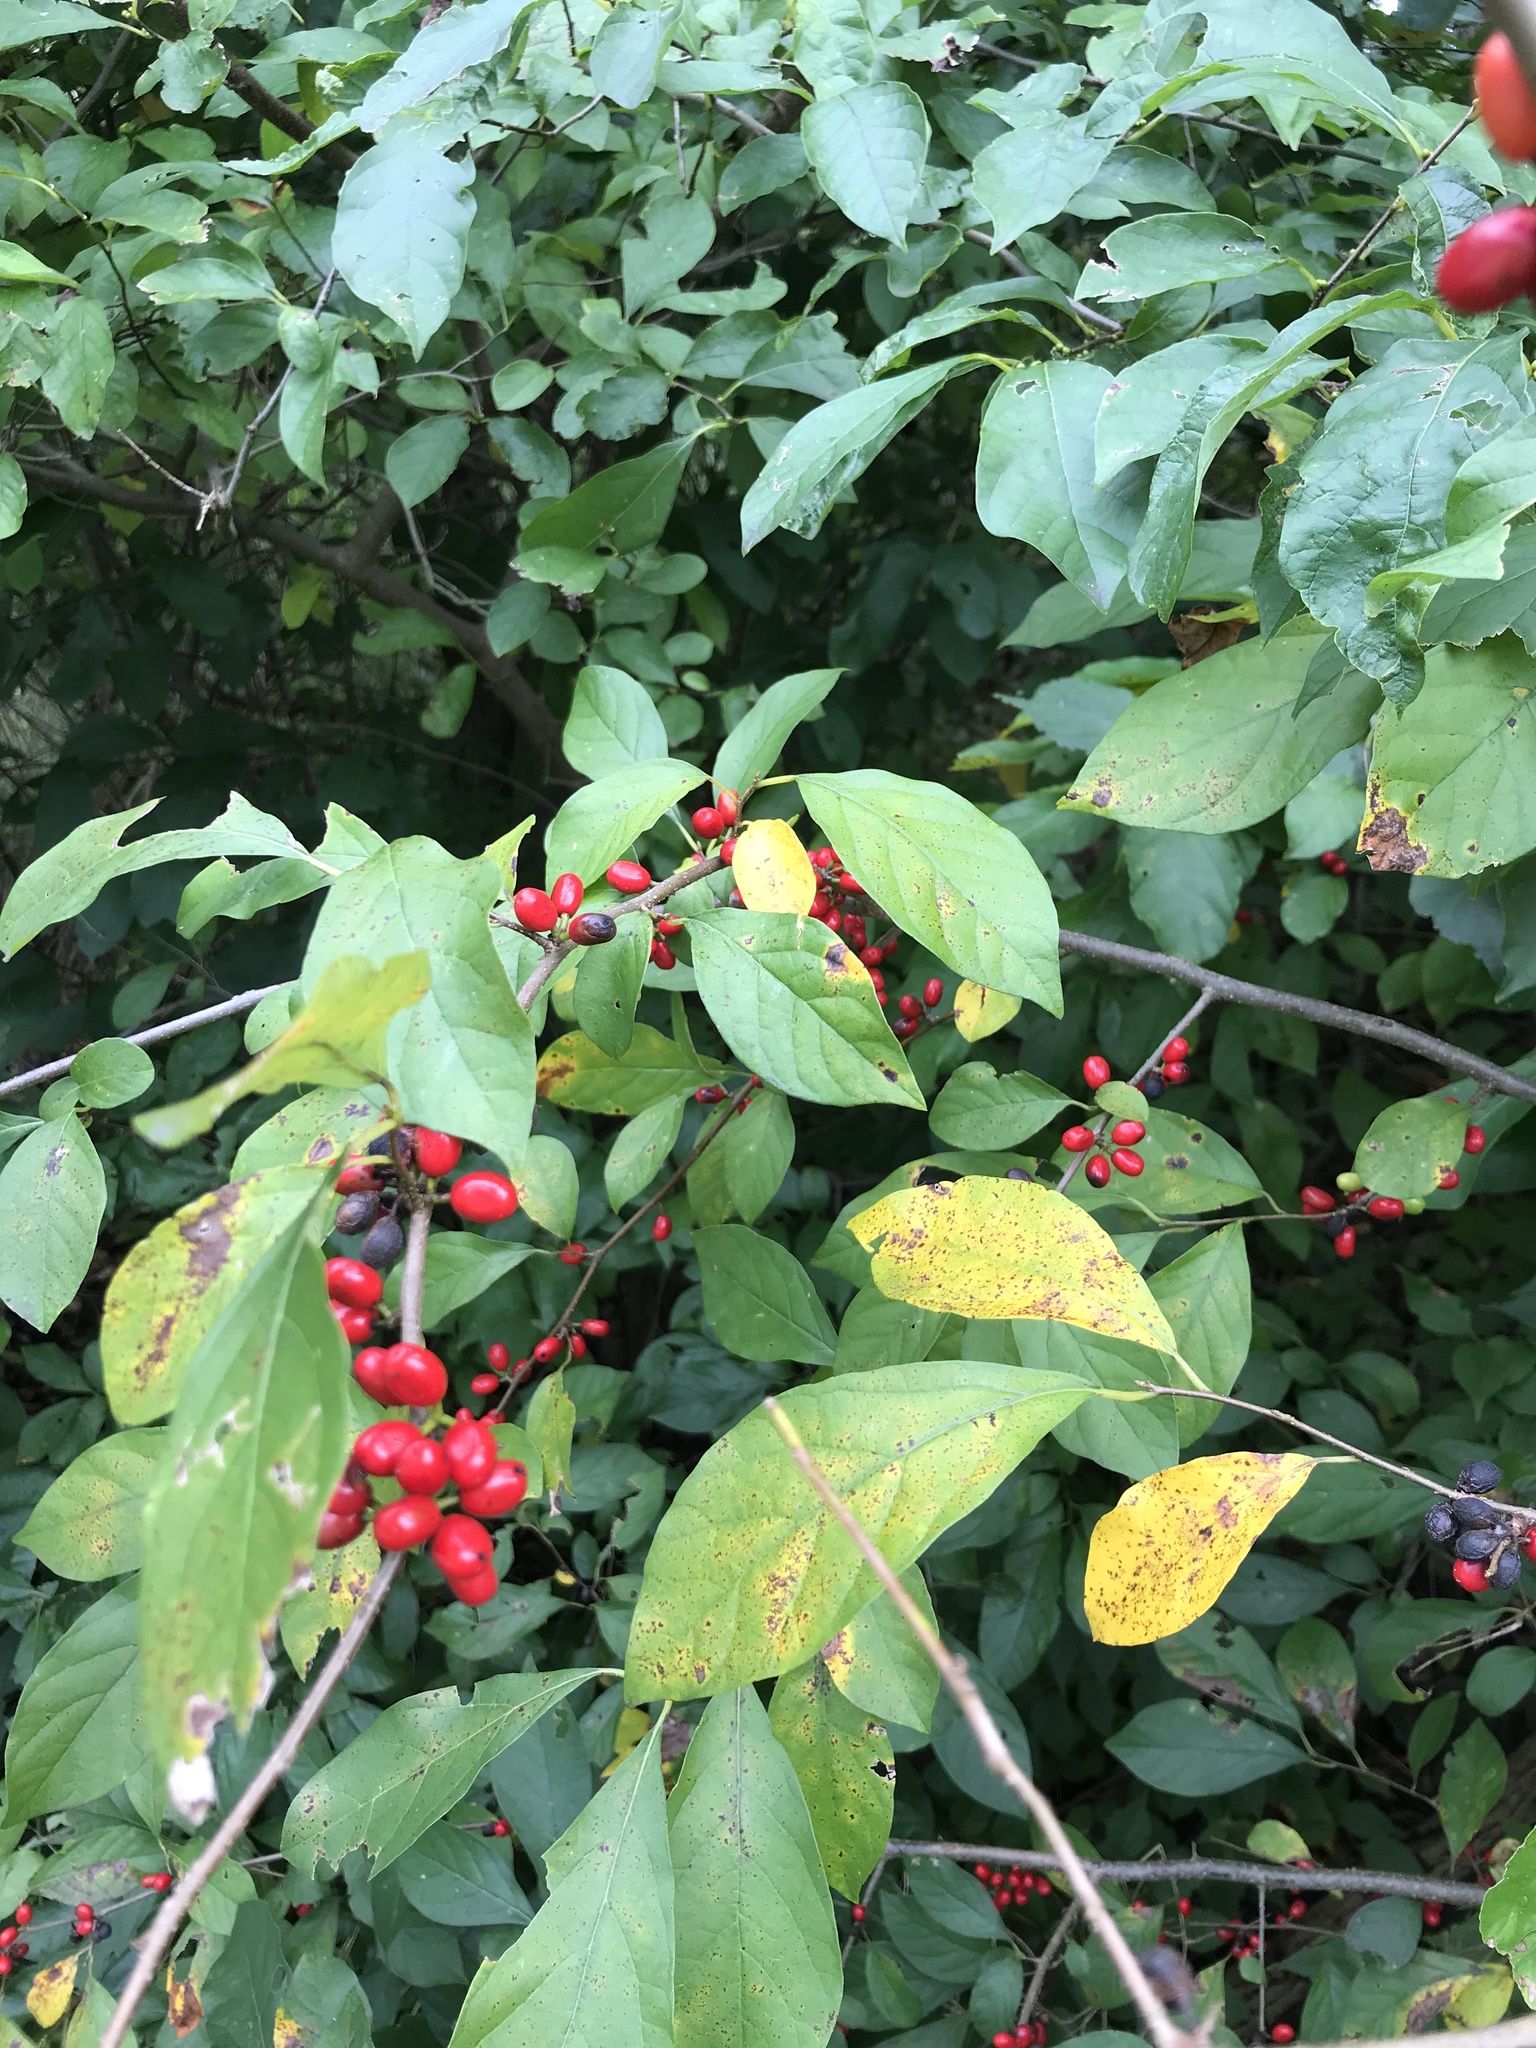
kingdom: Plantae
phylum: Tracheophyta
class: Magnoliopsida
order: Laurales
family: Lauraceae
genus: Lindera
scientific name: Lindera benzoin
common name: Spicebush
